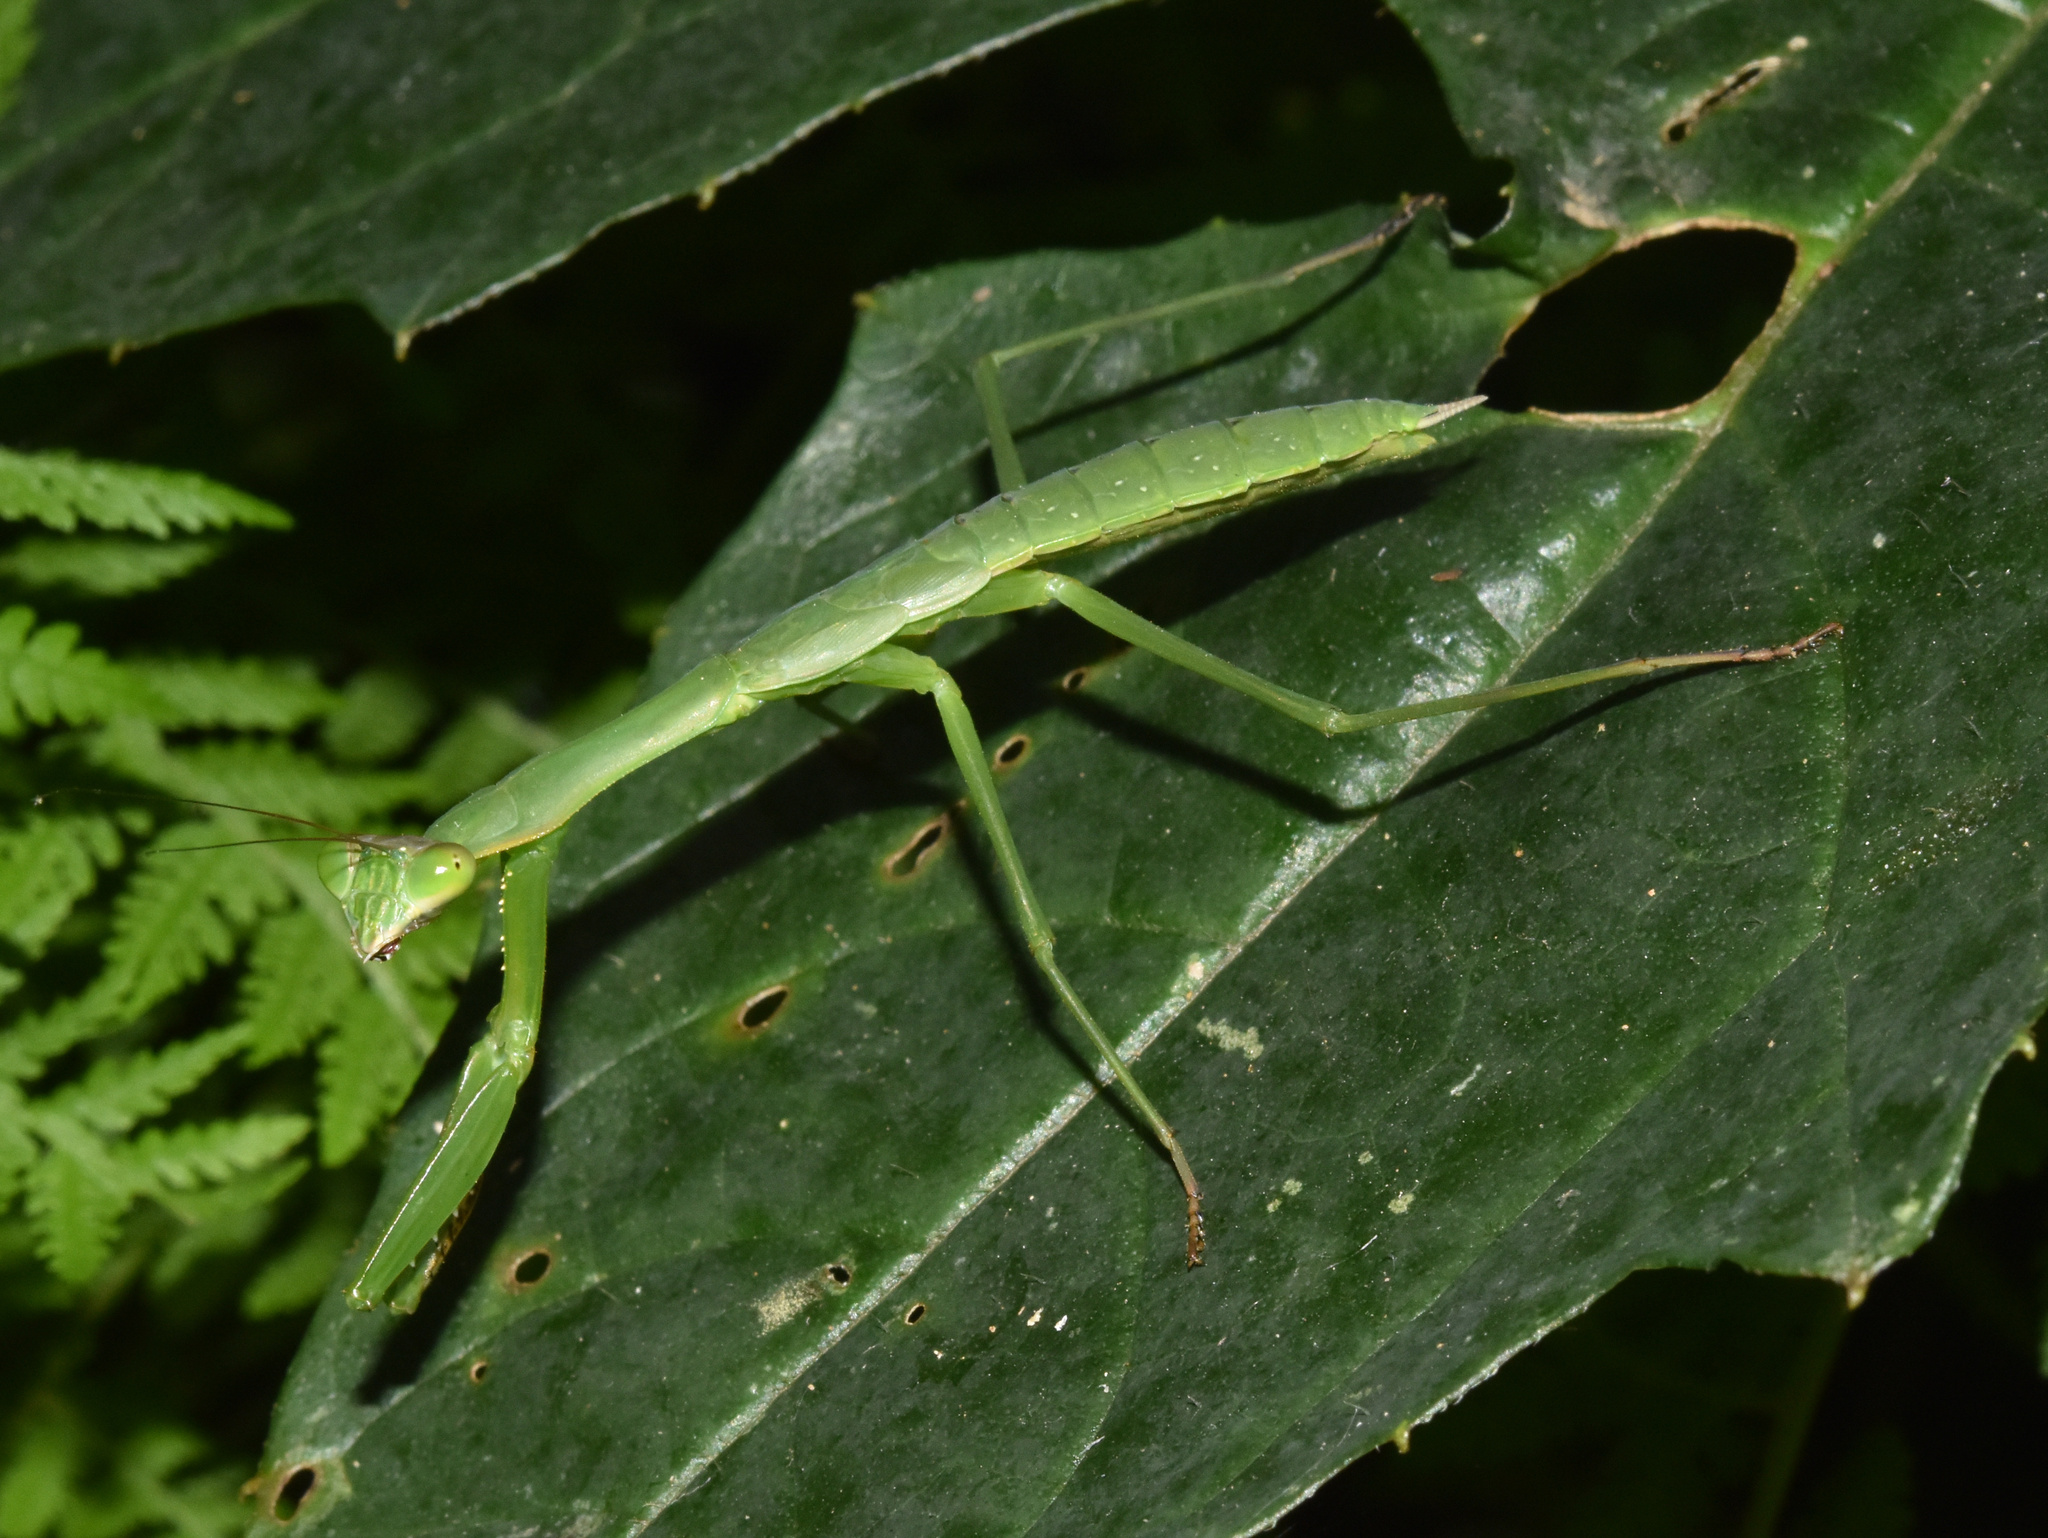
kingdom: Animalia
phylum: Arthropoda
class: Insecta
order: Mantodea
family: Mantidae
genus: Polyspilota
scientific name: Polyspilota aeruginosa
